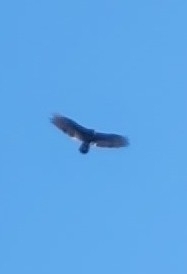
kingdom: Animalia
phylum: Chordata
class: Aves
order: Accipitriformes
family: Cathartidae
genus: Cathartes
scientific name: Cathartes aura
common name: Turkey vulture
